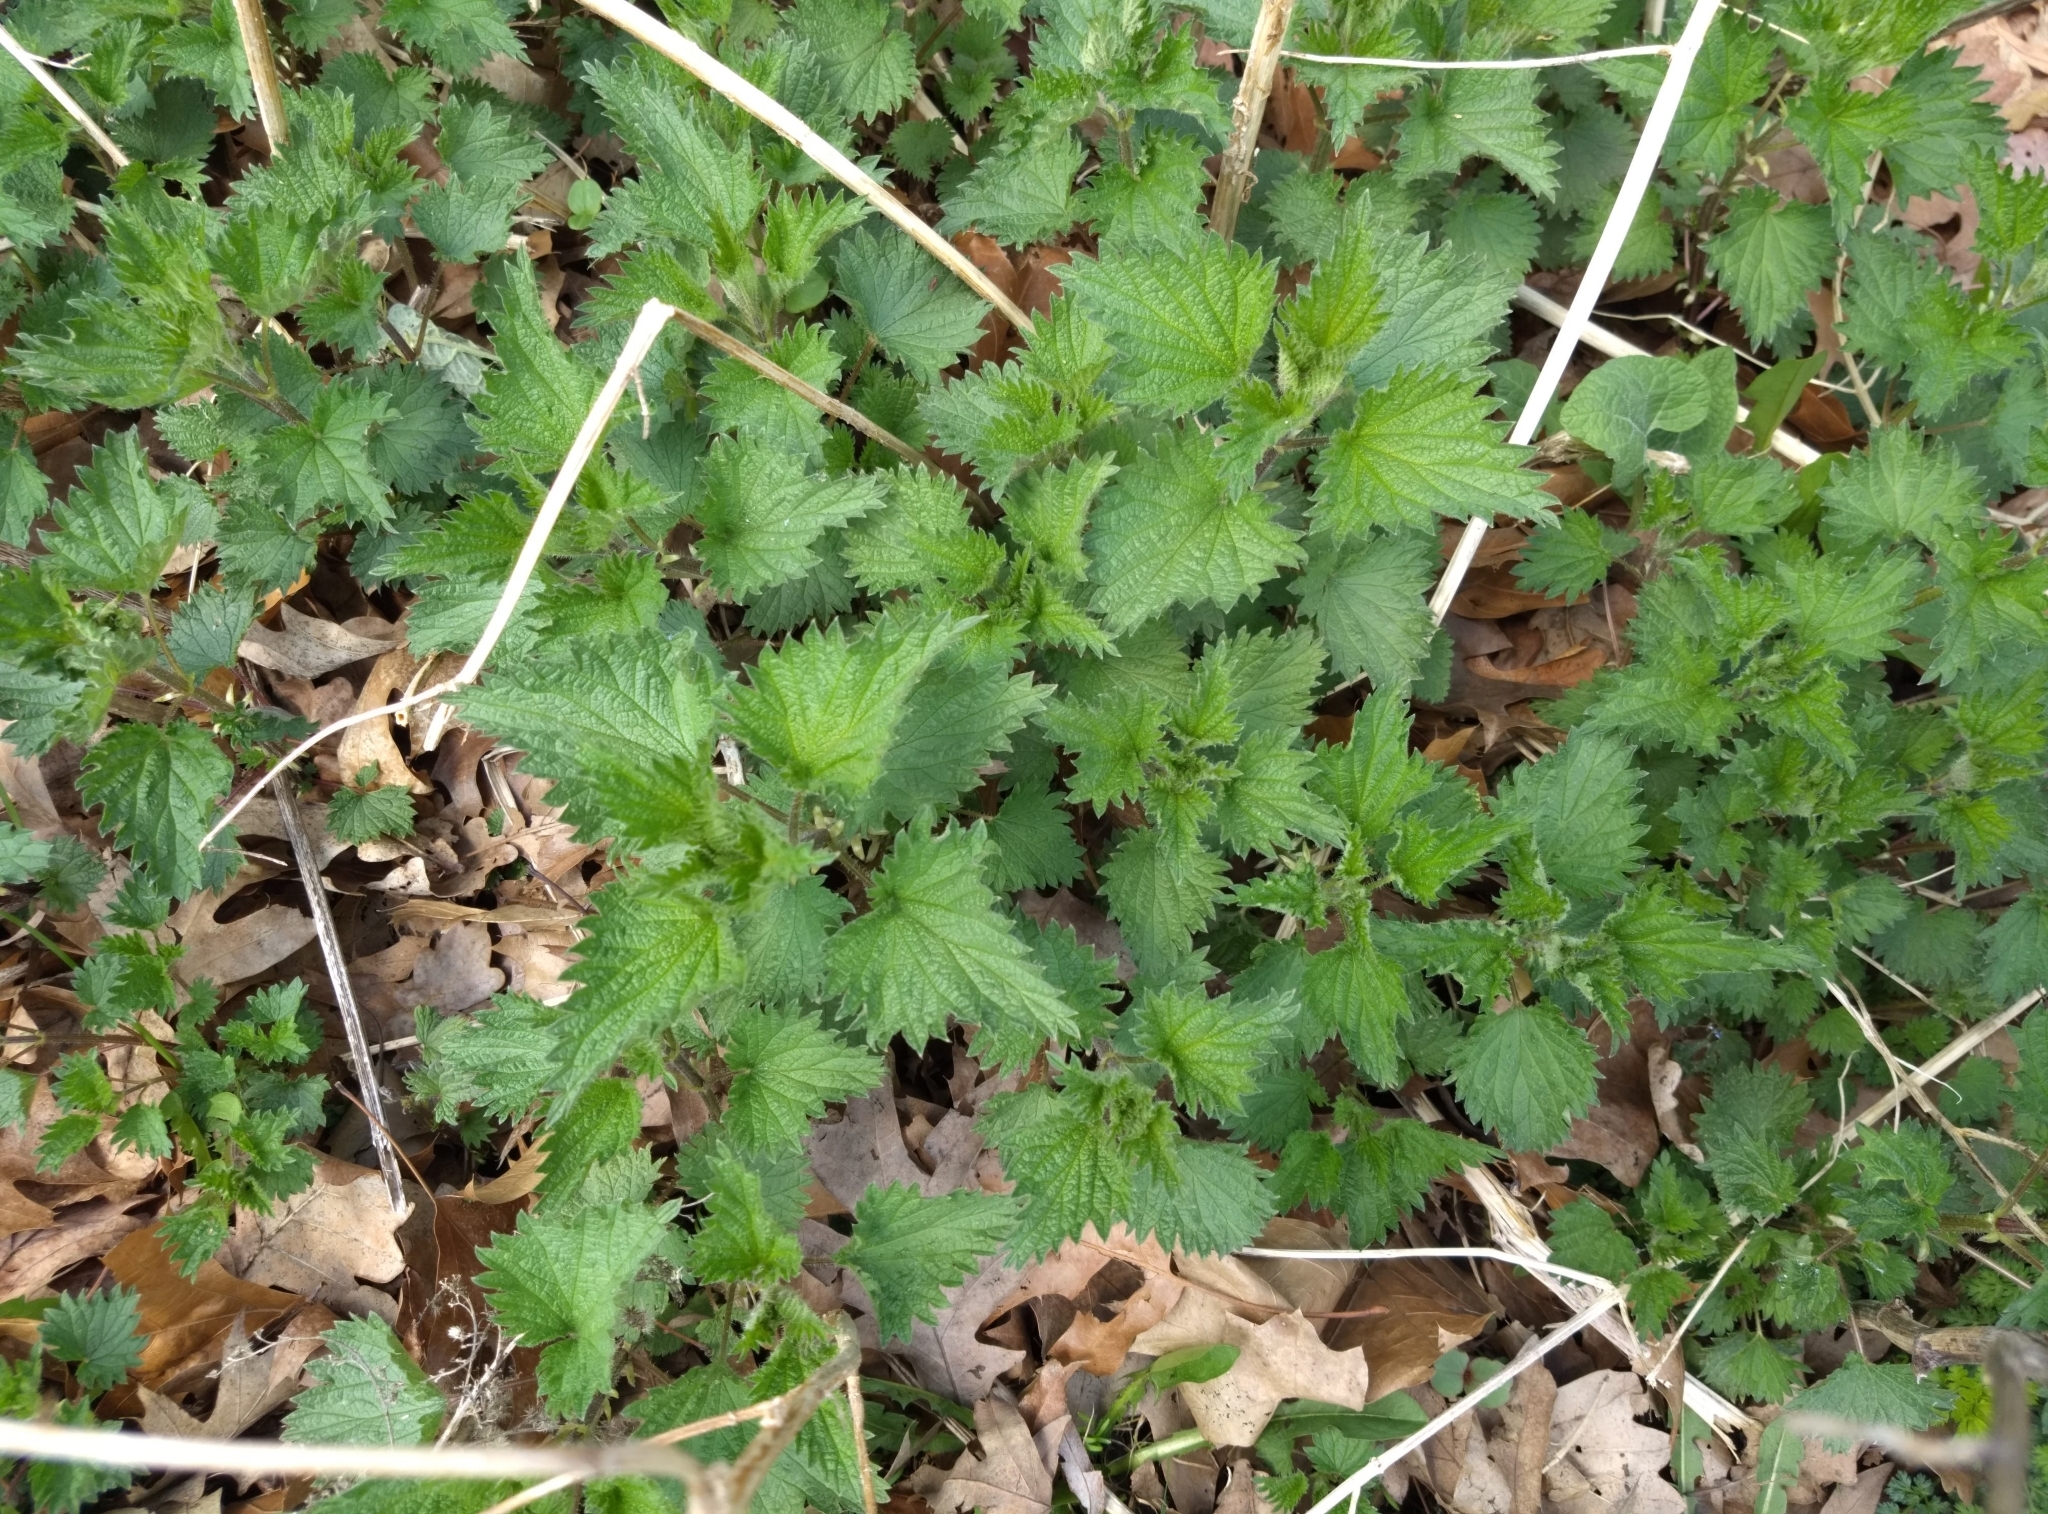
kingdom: Plantae
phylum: Tracheophyta
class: Magnoliopsida
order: Rosales
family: Urticaceae
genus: Urtica
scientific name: Urtica dioica
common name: Common nettle
